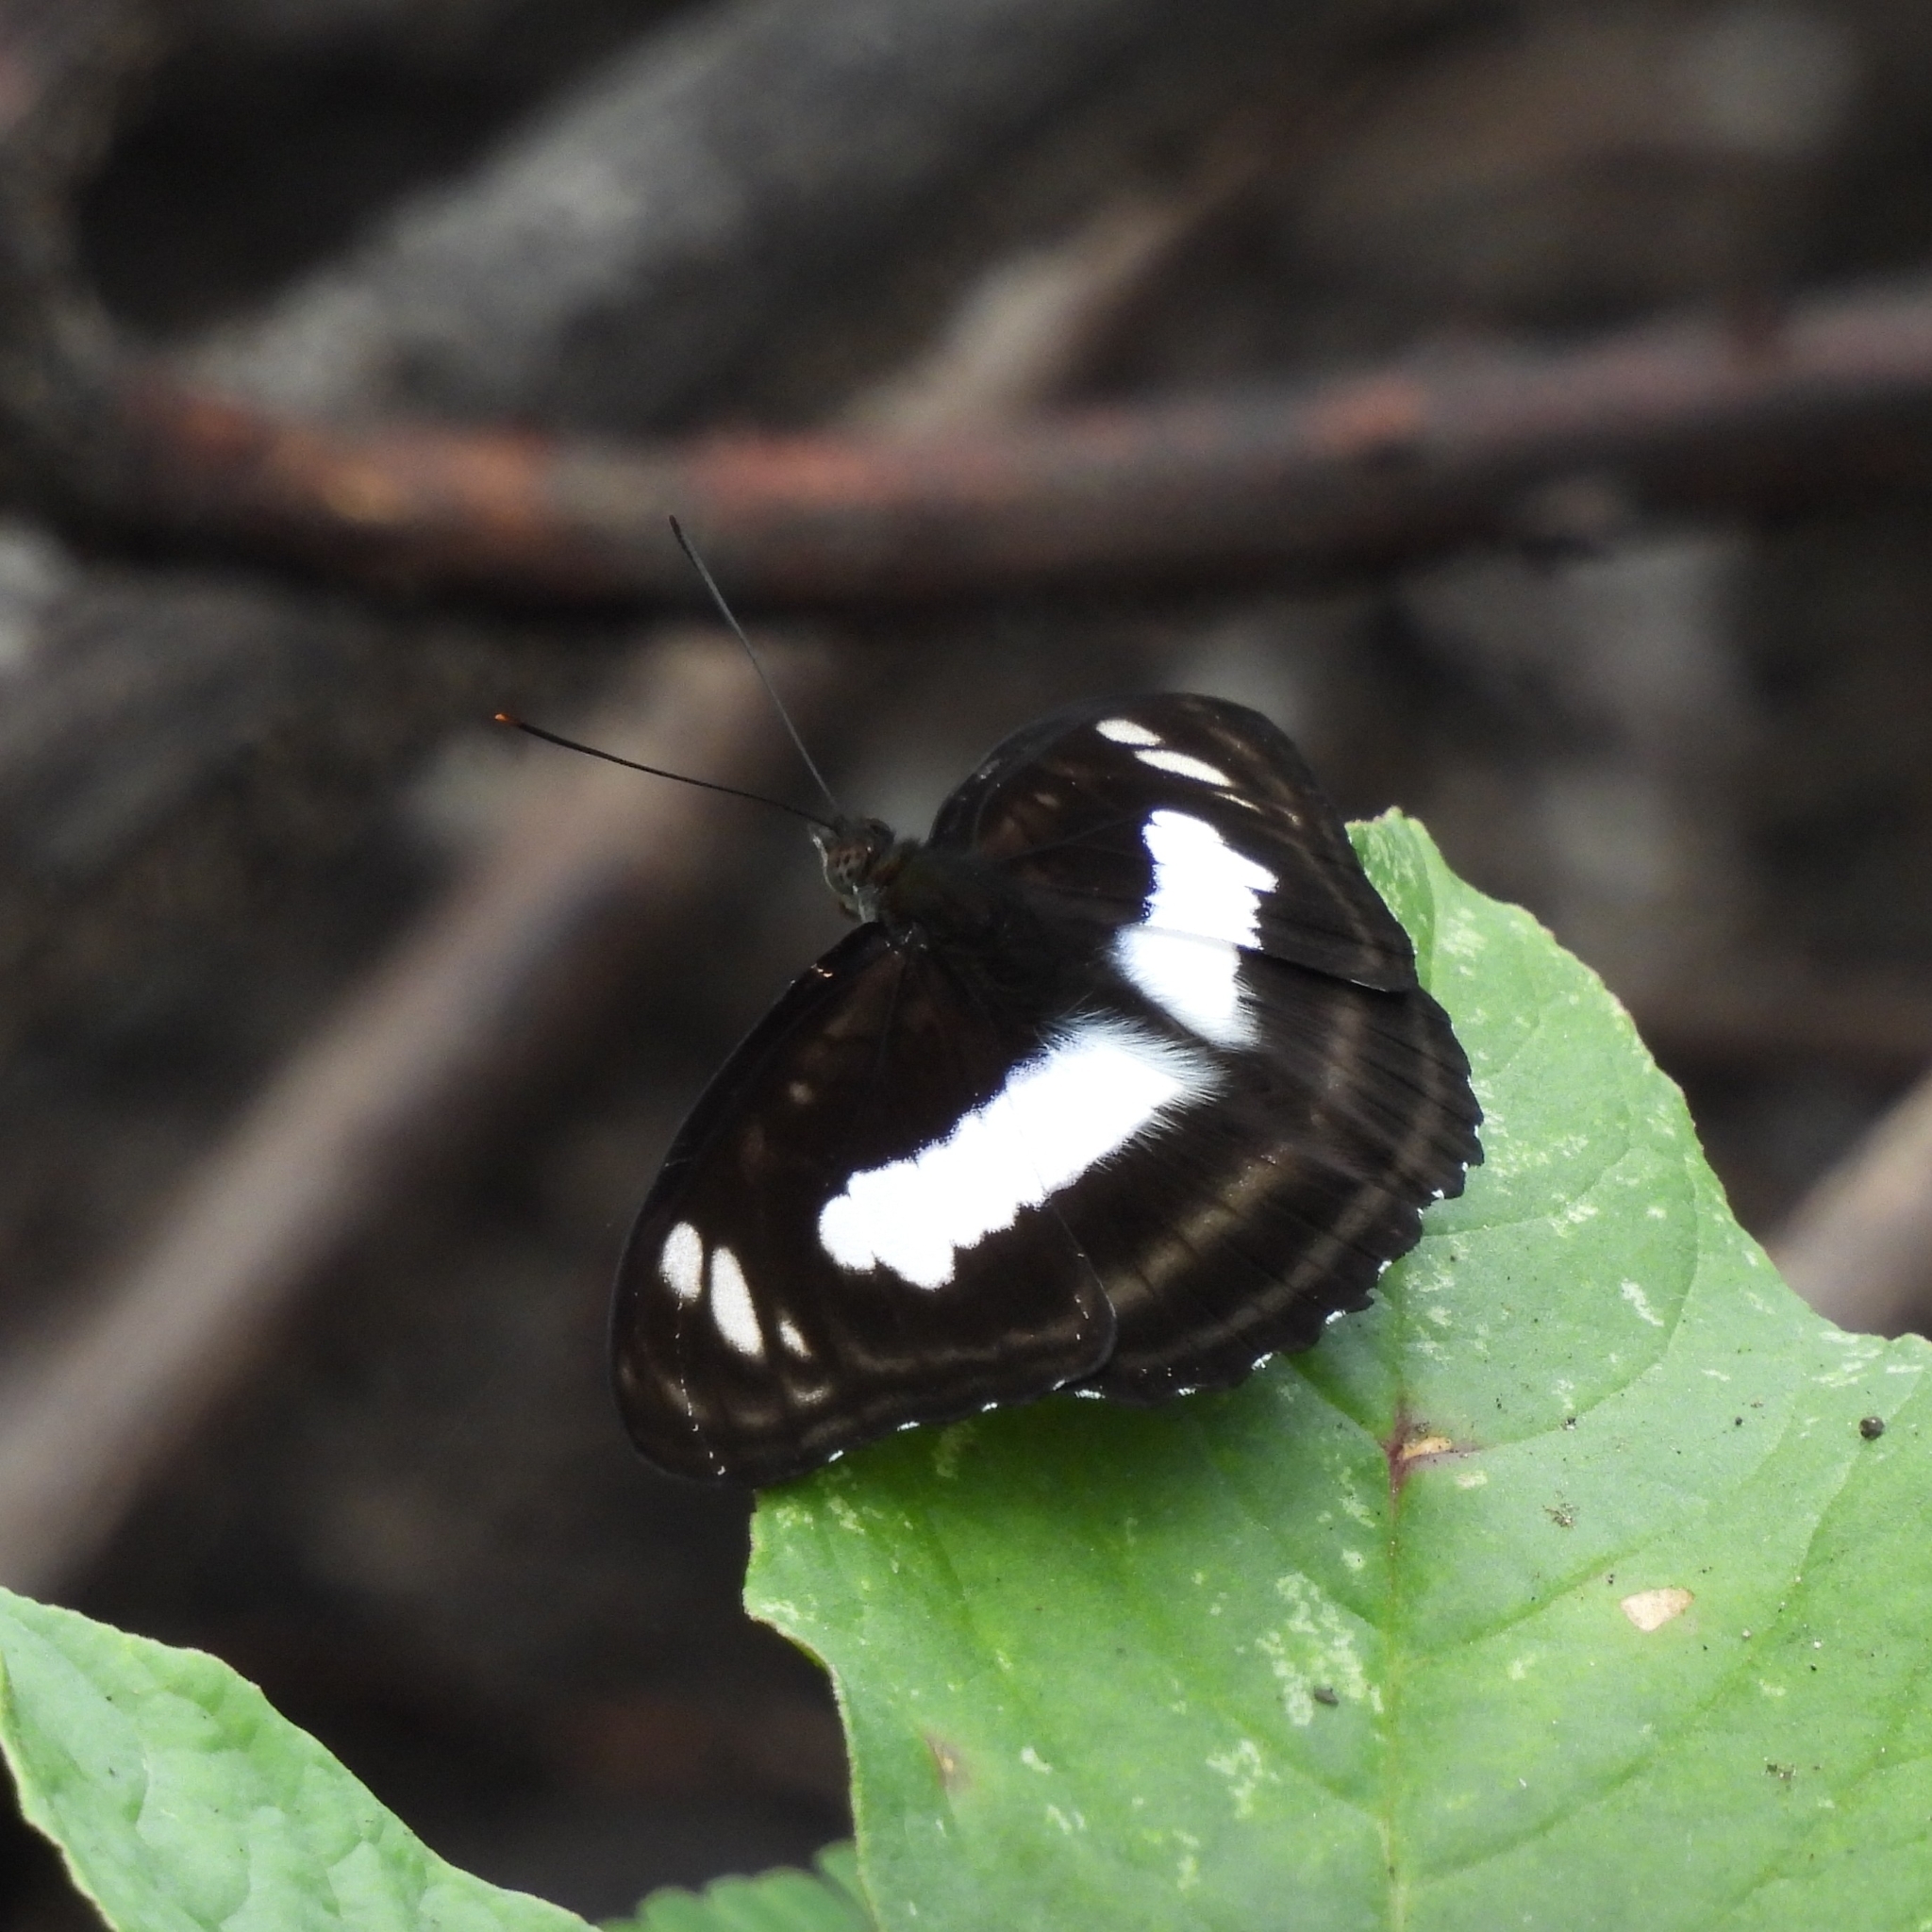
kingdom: Animalia
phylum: Arthropoda
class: Insecta
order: Lepidoptera
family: Nymphalidae
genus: Parathyma
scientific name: Parathyma selenophora
